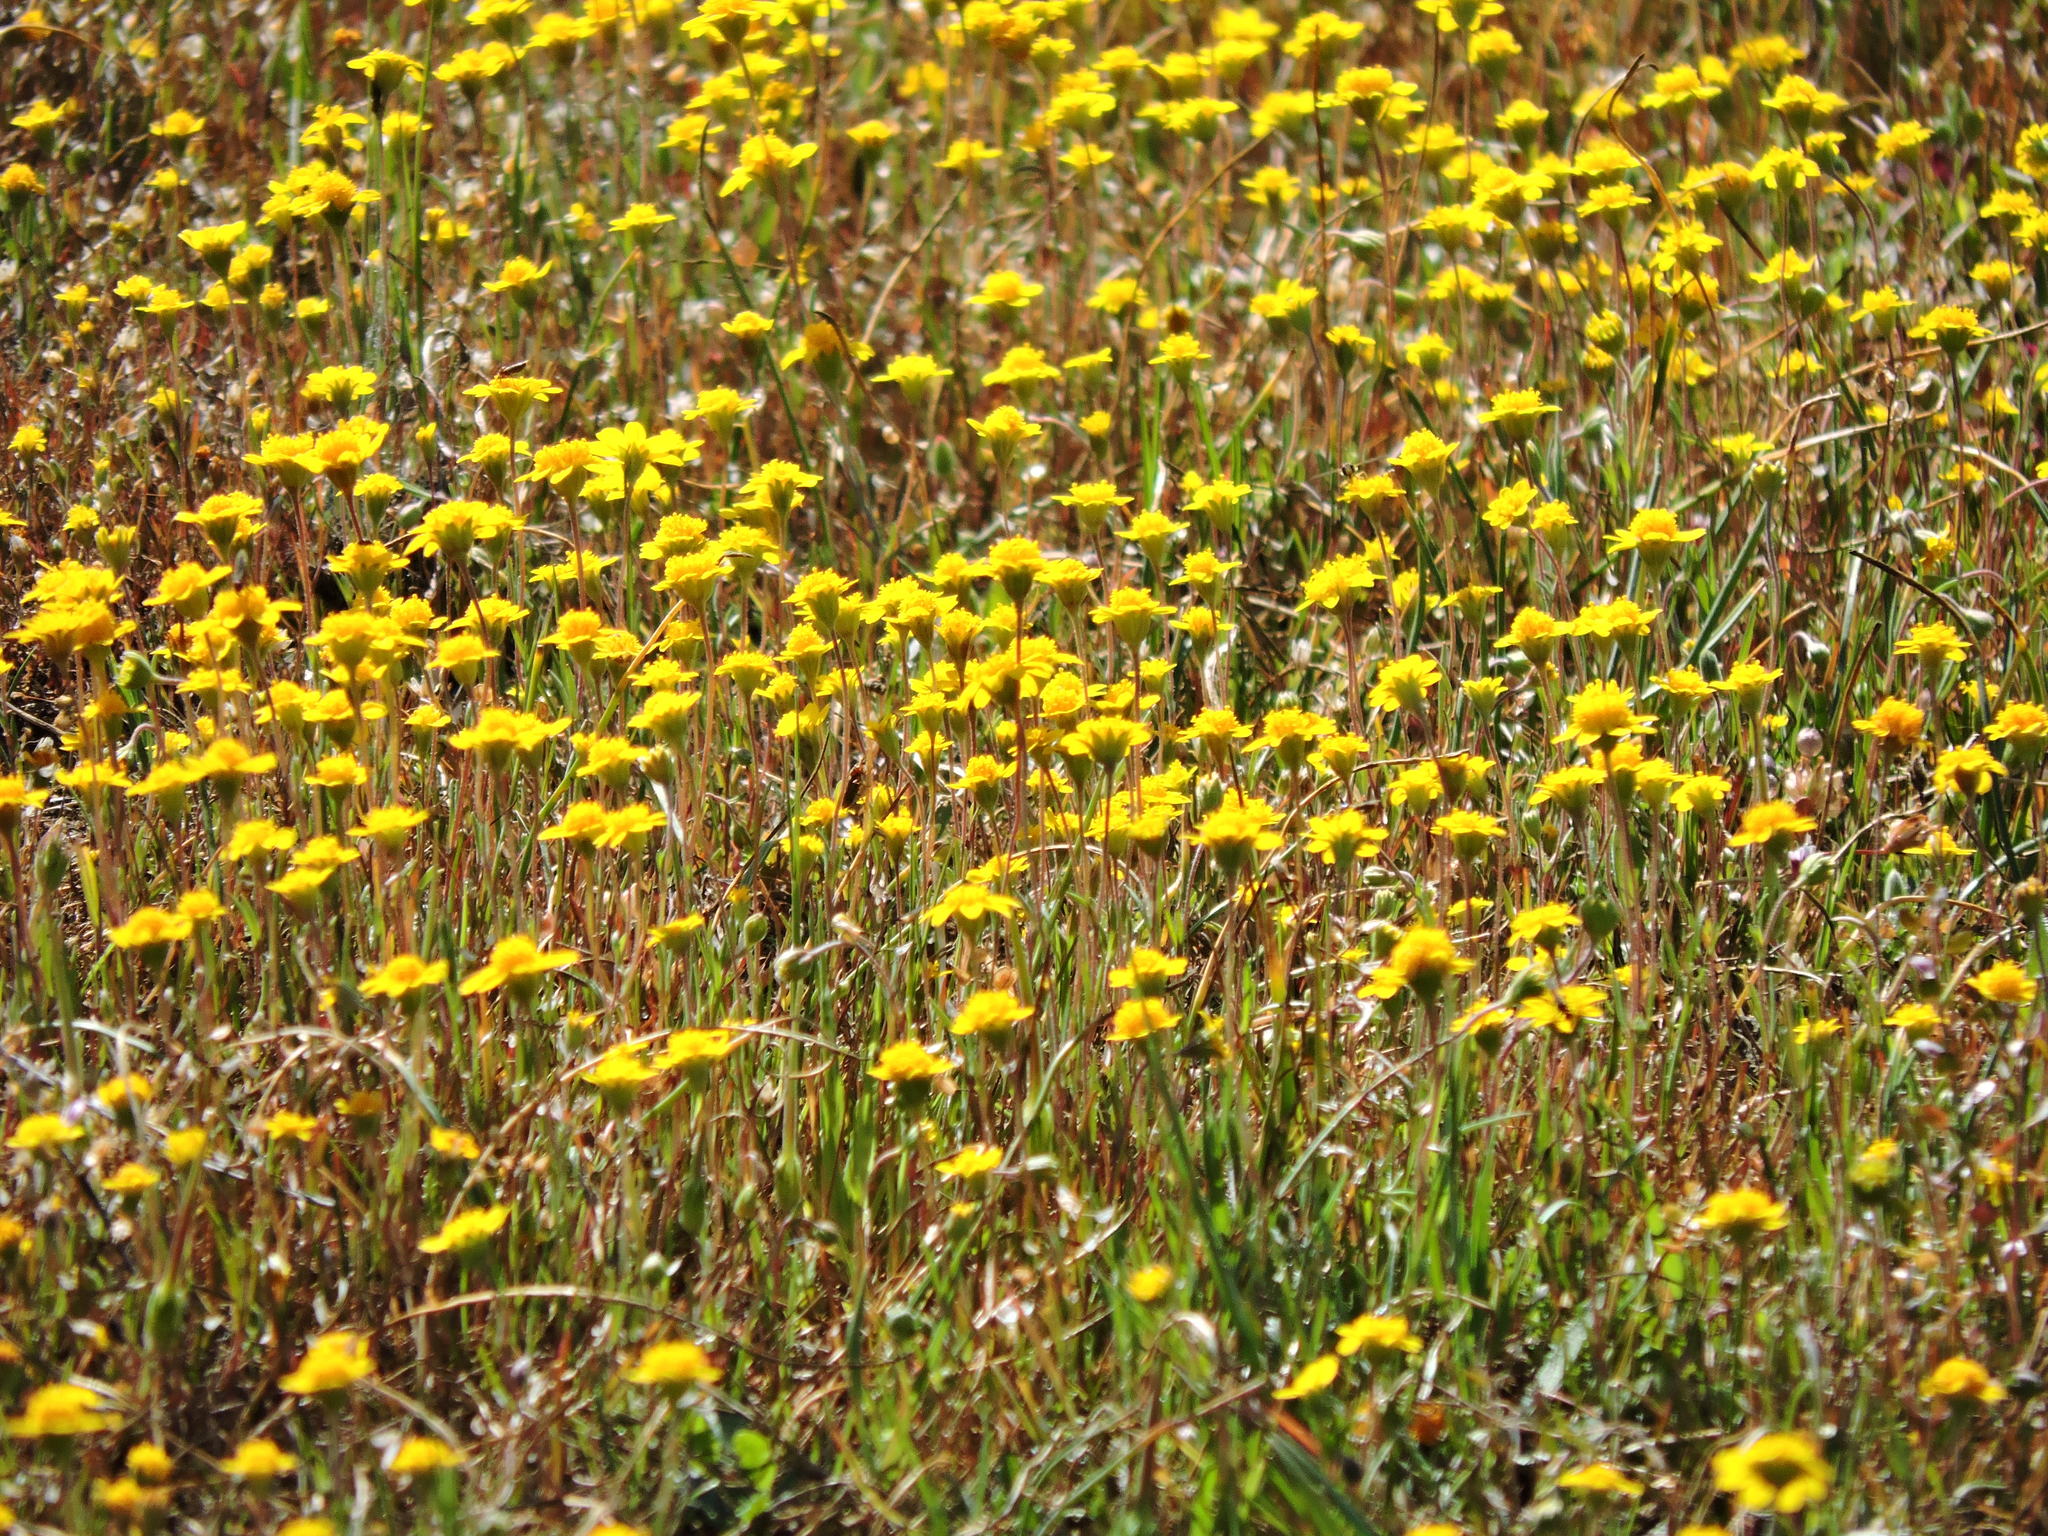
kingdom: Plantae
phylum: Tracheophyta
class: Magnoliopsida
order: Asterales
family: Asteraceae
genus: Lasthenia
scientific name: Lasthenia californica
